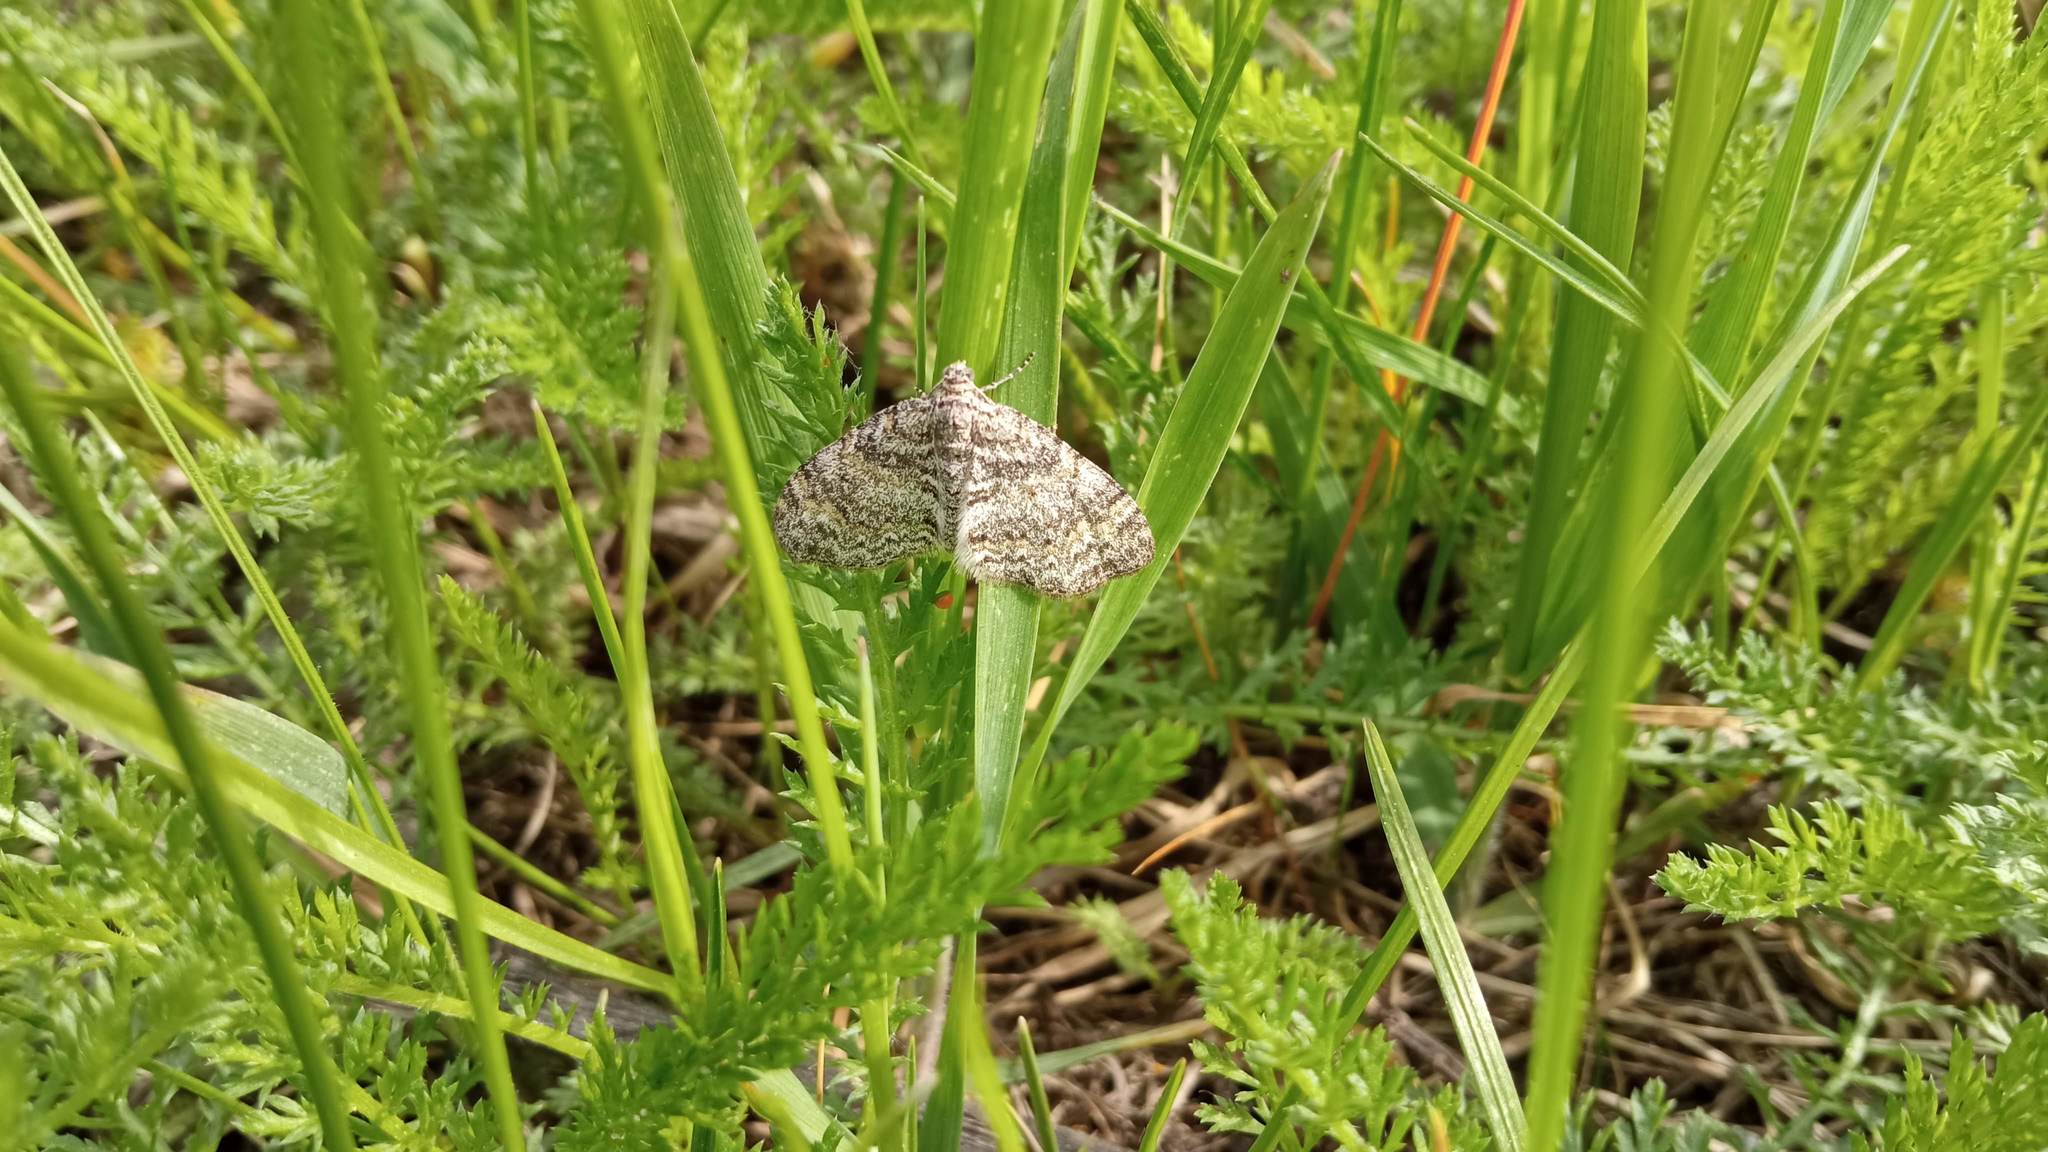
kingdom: Animalia
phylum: Arthropoda
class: Insecta
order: Lepidoptera
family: Geometridae
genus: Lobophora
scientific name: Lobophora halterata
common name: Seraphim
